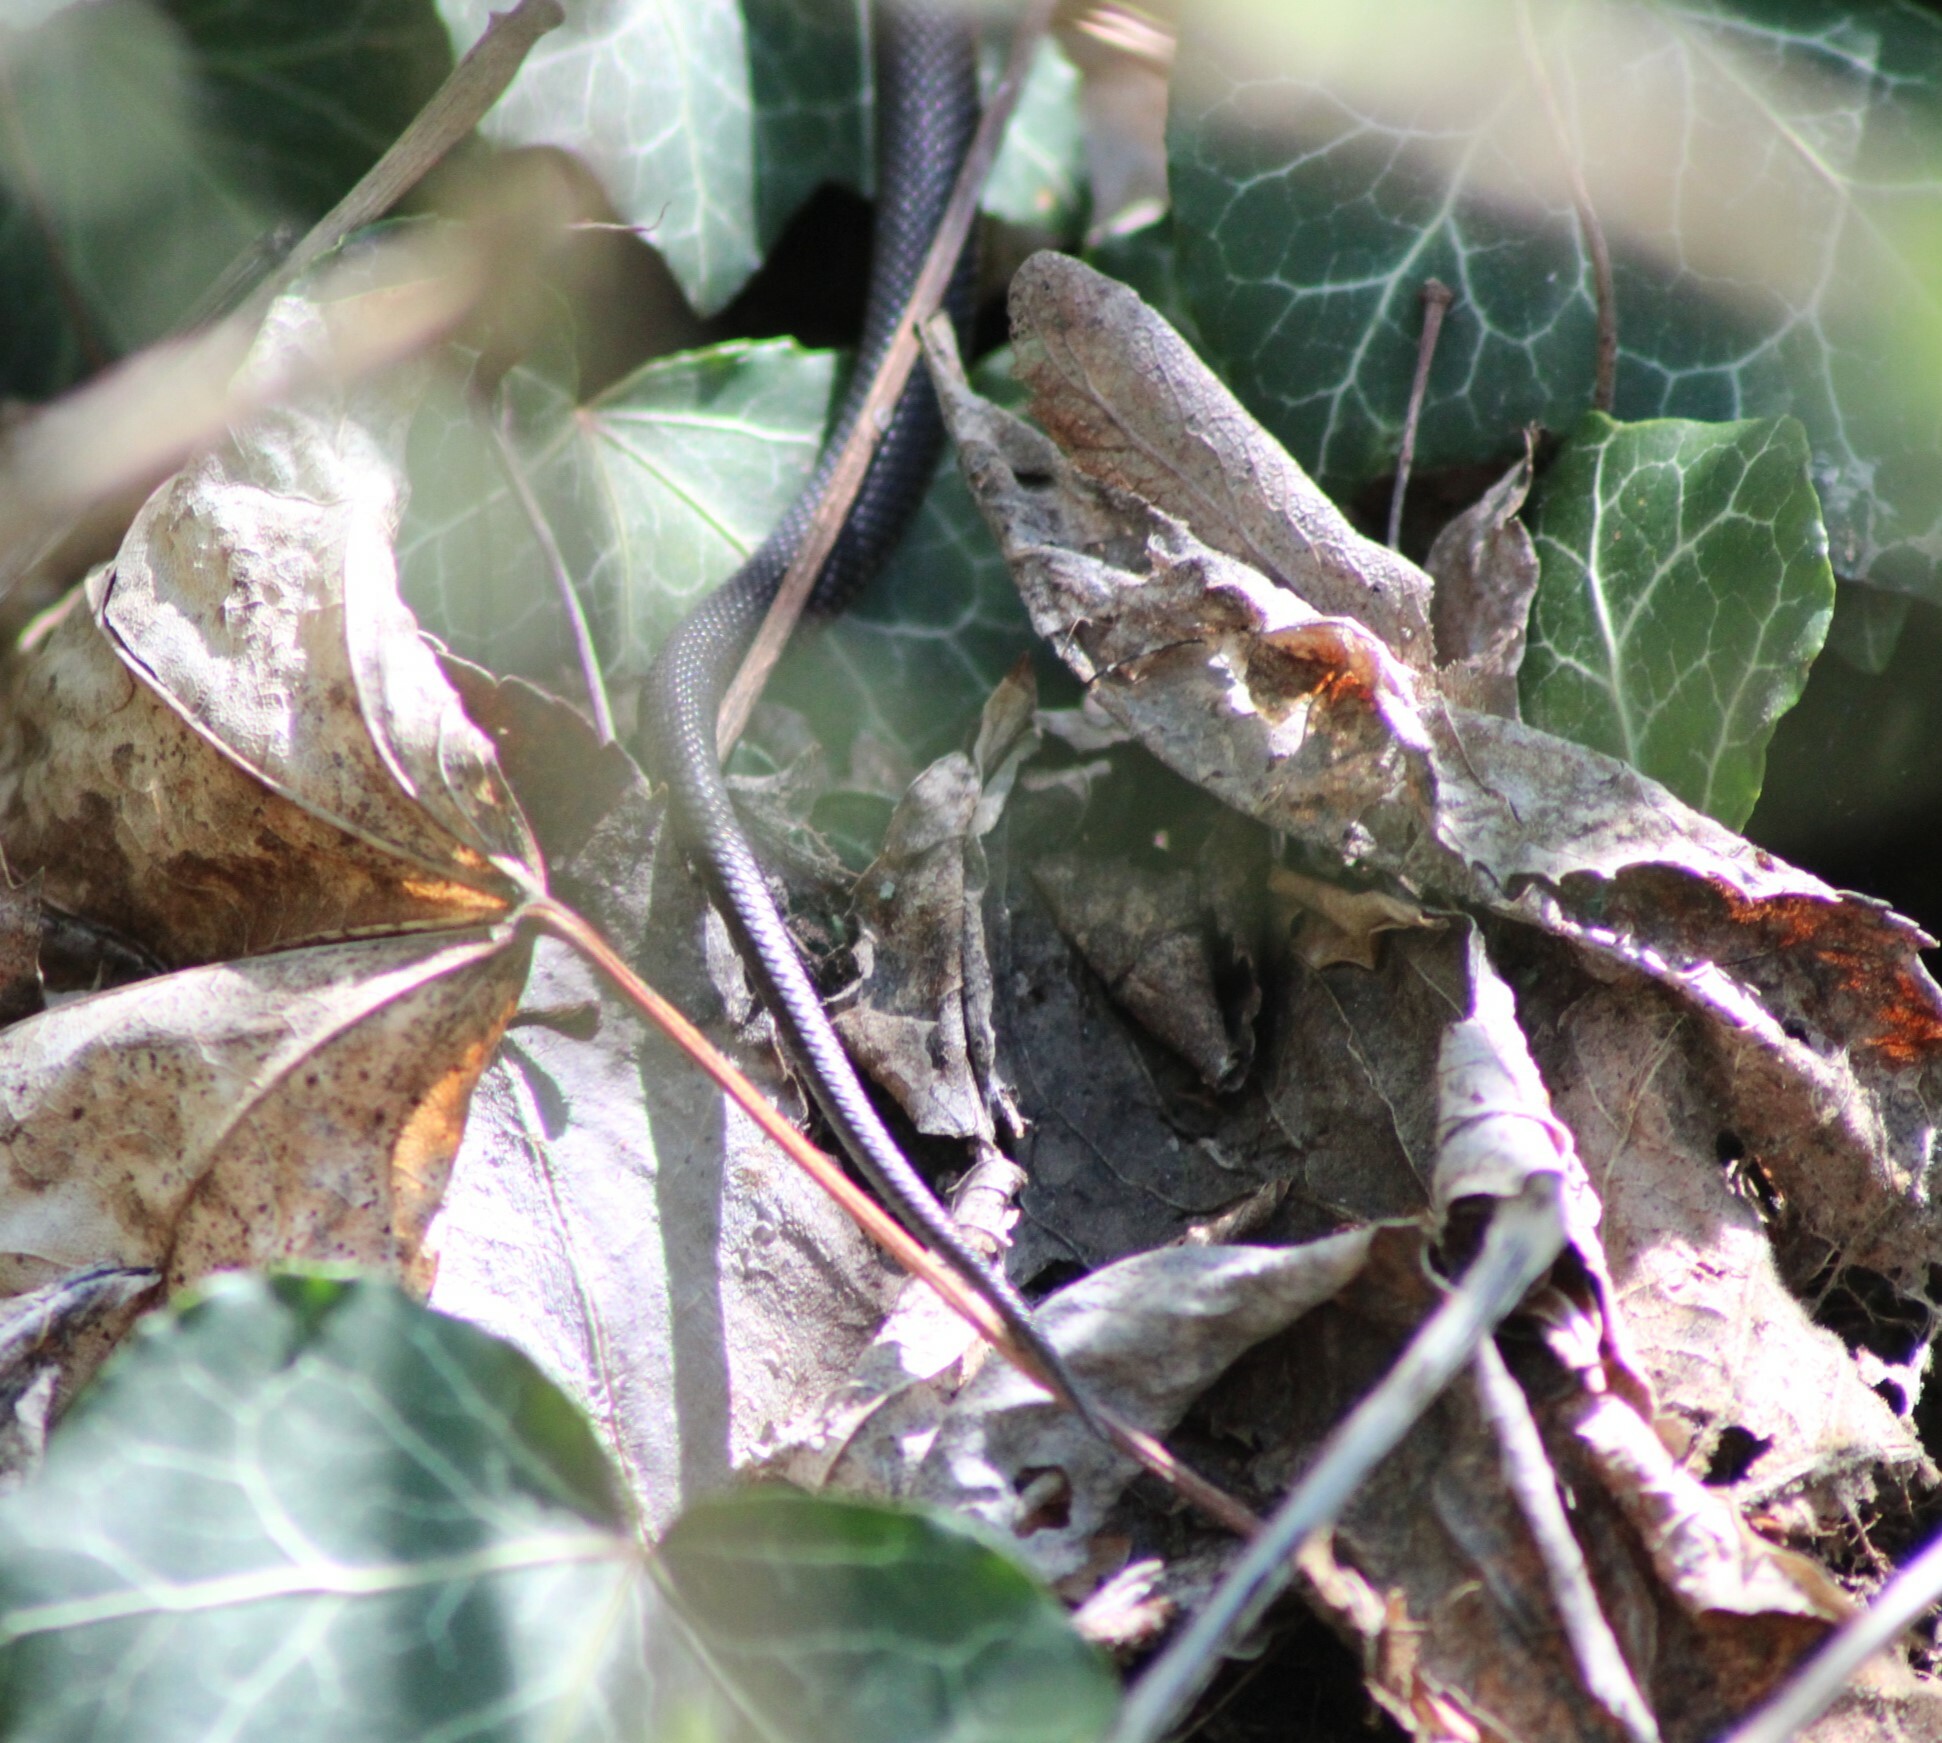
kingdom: Animalia
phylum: Chordata
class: Squamata
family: Colubridae
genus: Natrix
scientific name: Natrix natrix
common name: Grass snake
